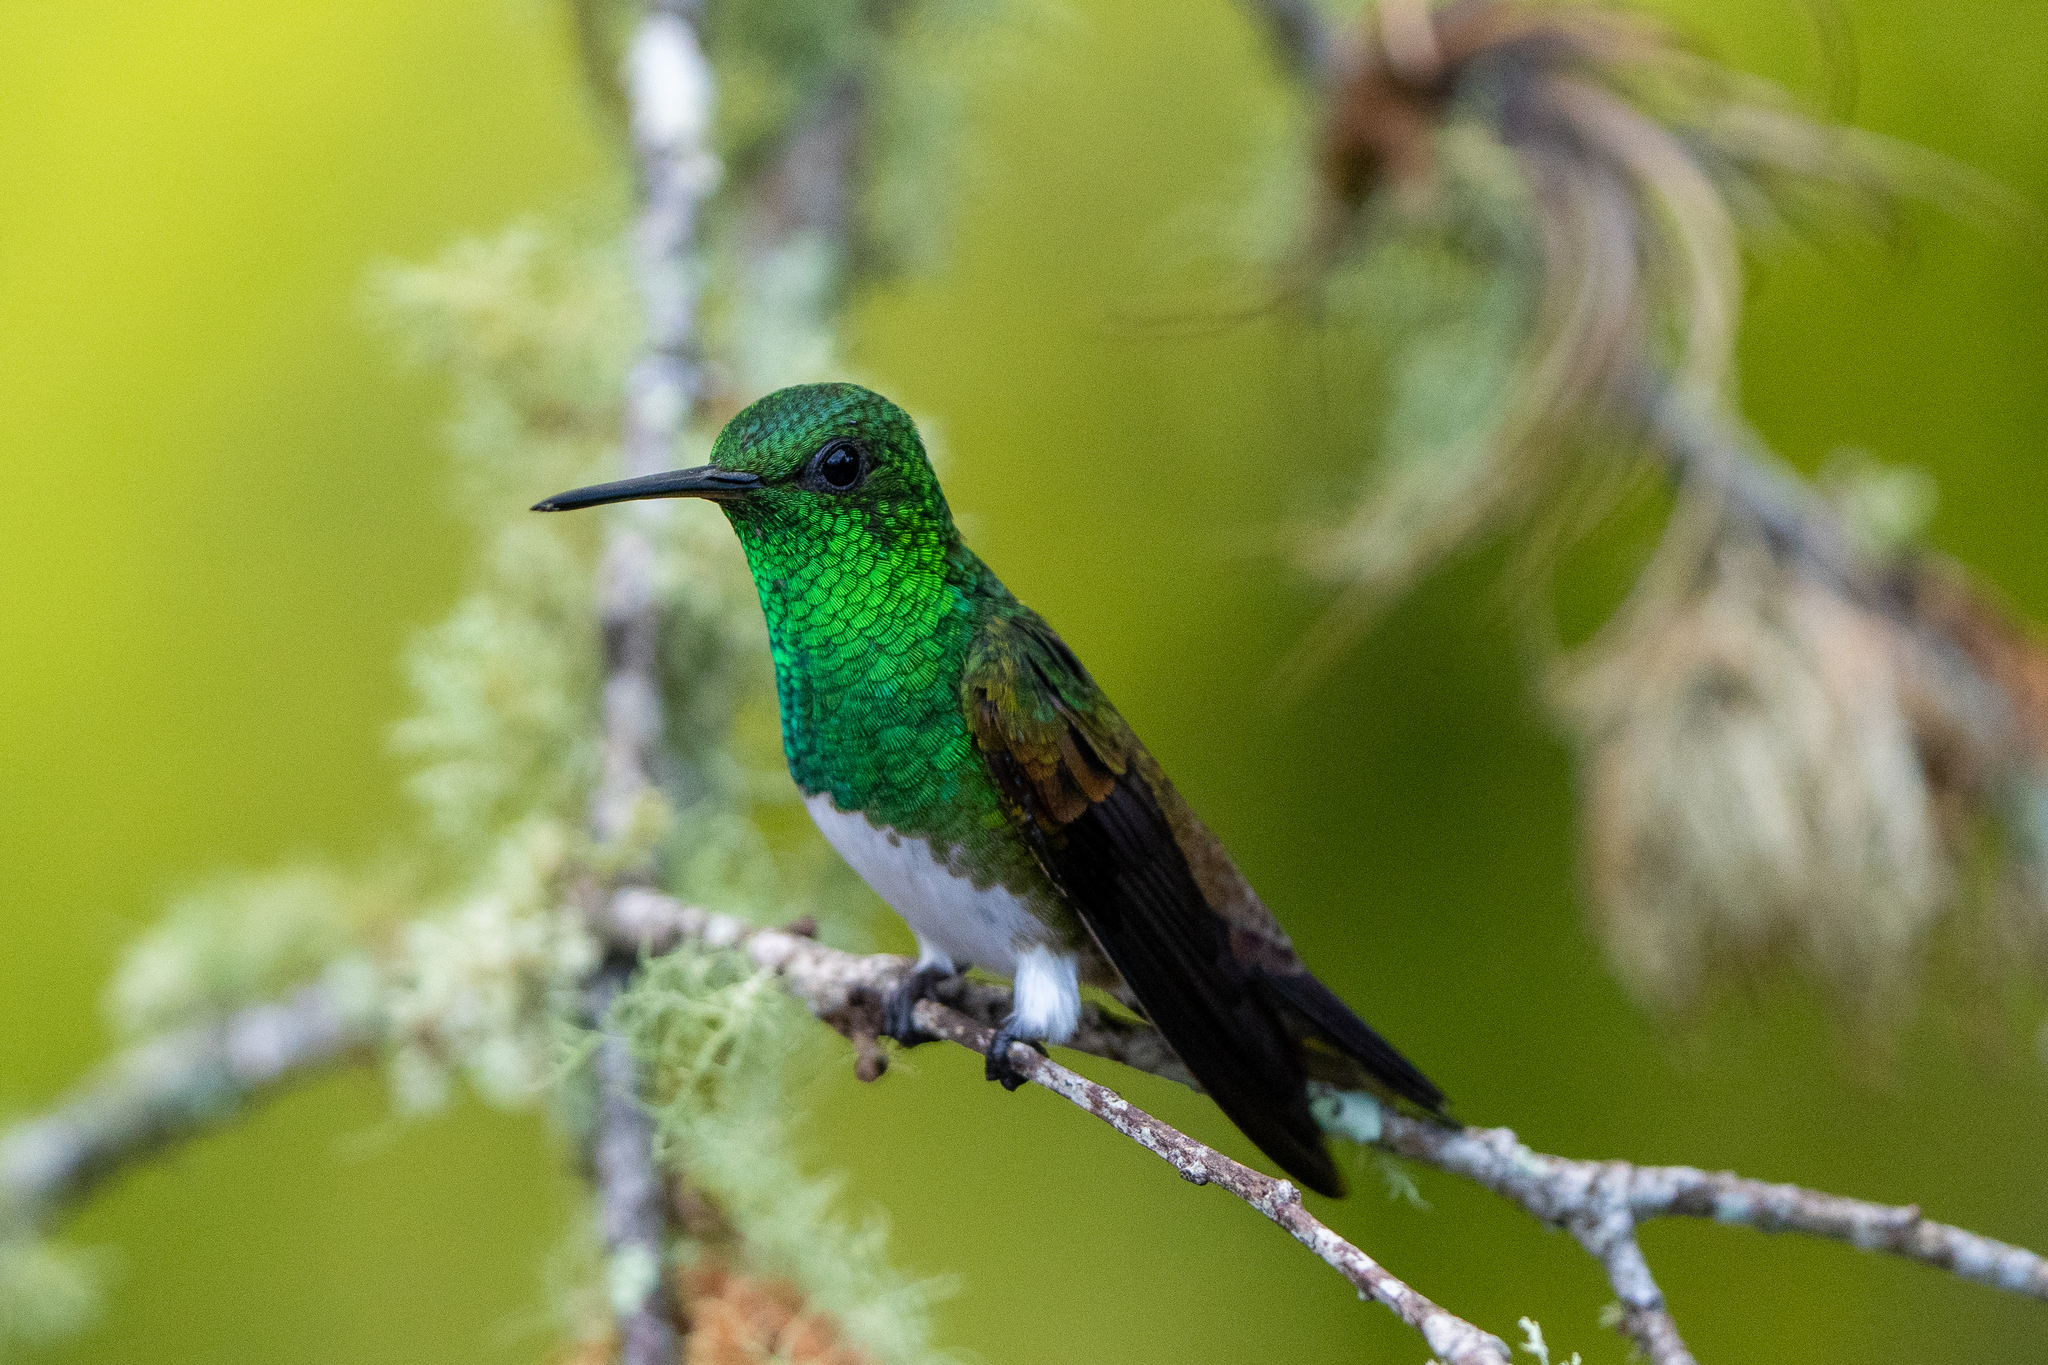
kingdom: Animalia
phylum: Chordata
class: Aves
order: Apodiformes
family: Trochilidae
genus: Saucerottia
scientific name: Saucerottia edward
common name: Snowy-bellied hummingbird
